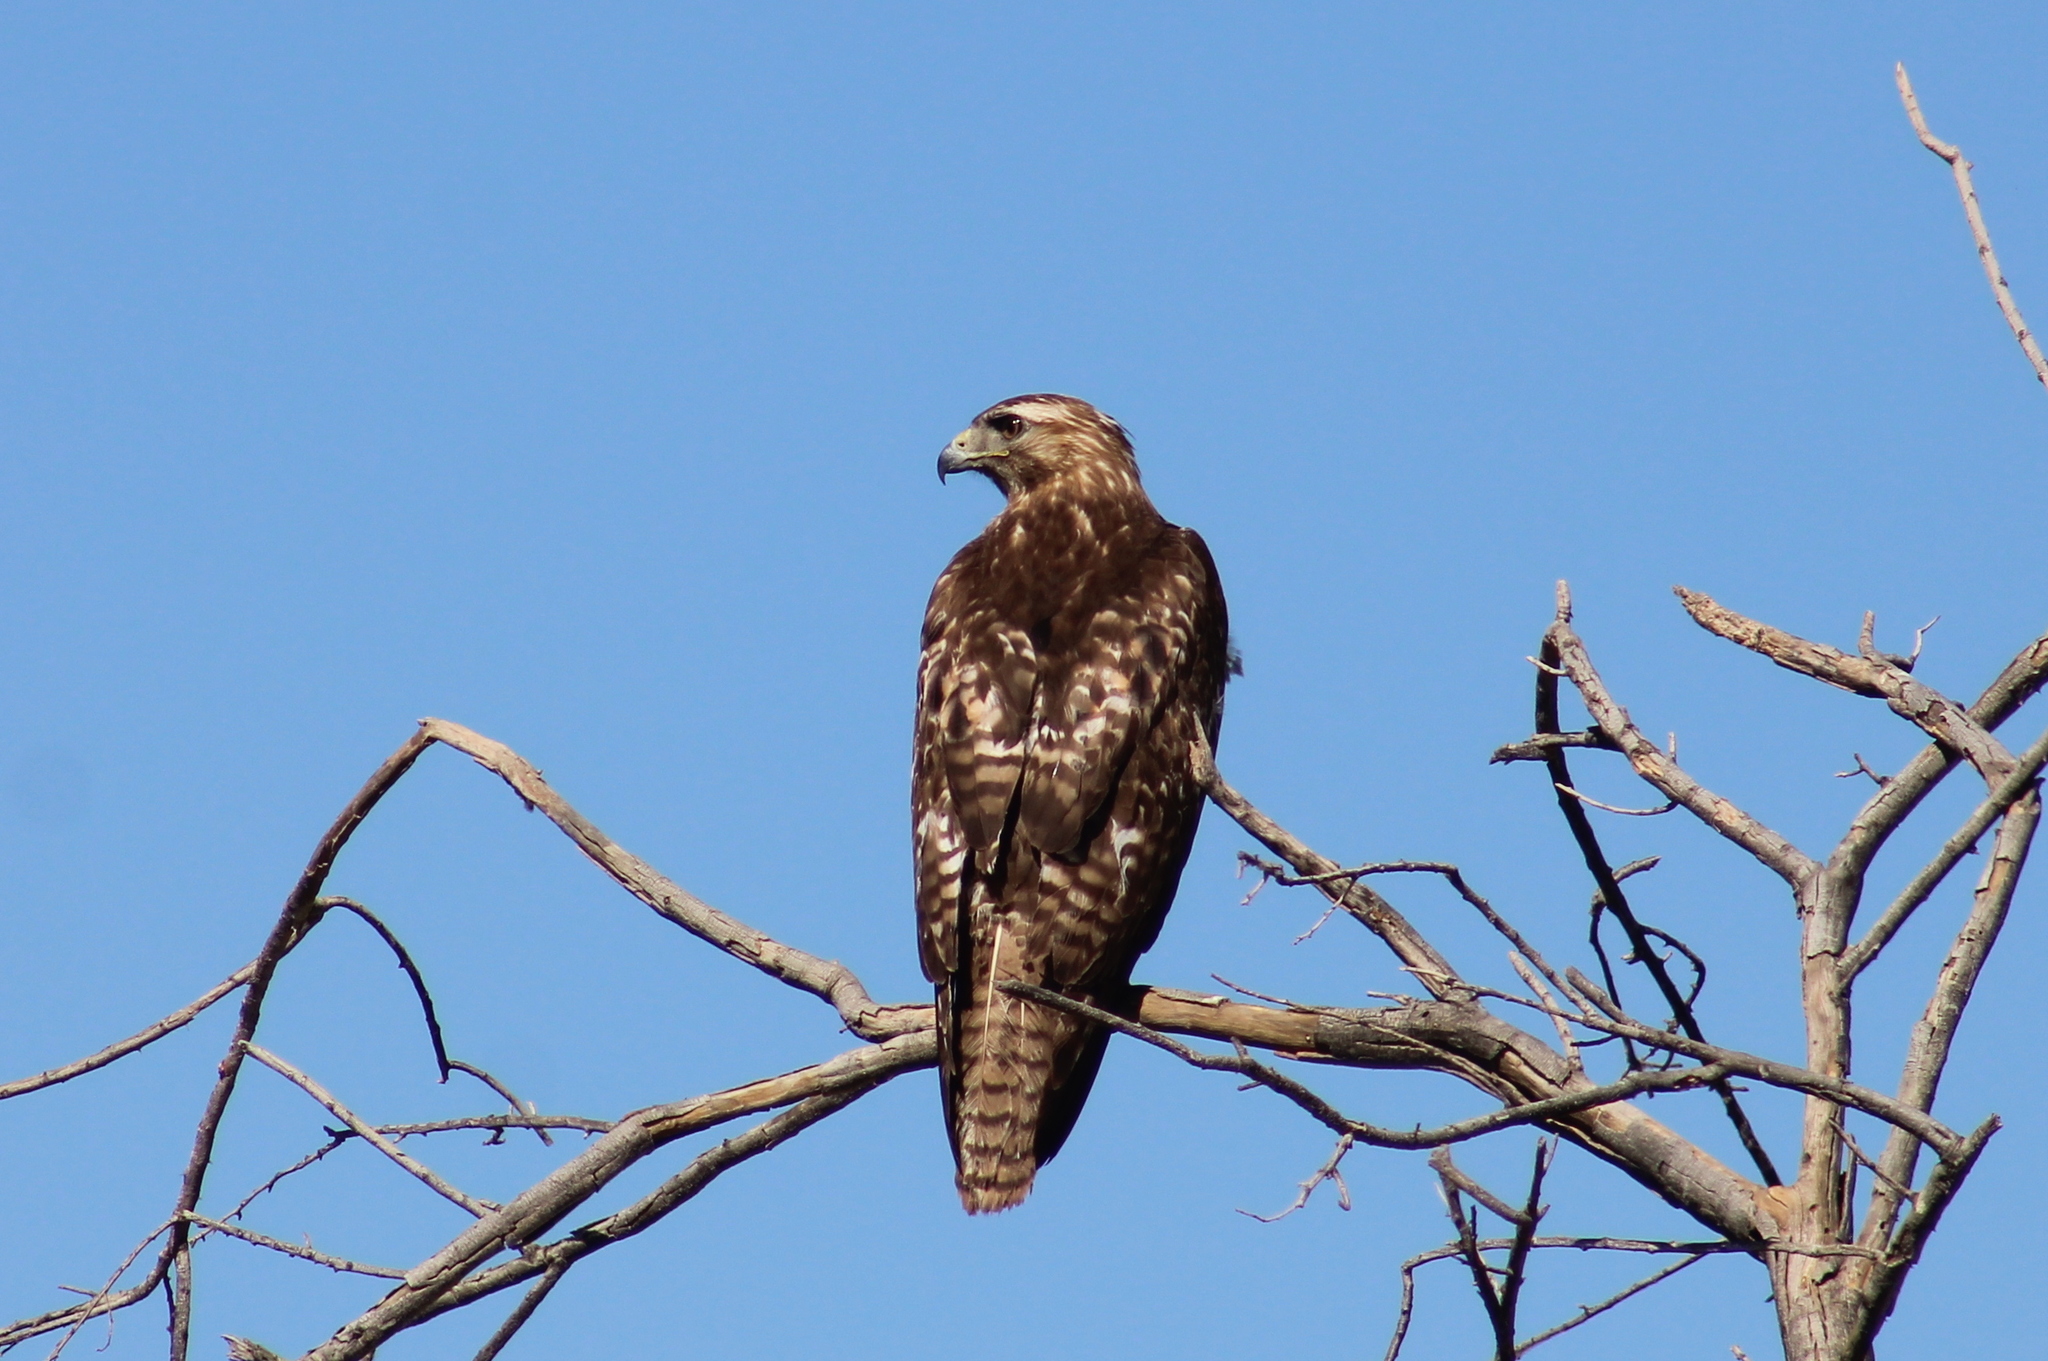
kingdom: Animalia
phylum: Chordata
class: Aves
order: Accipitriformes
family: Accipitridae
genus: Buteo
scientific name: Buteo jamaicensis
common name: Red-tailed hawk
